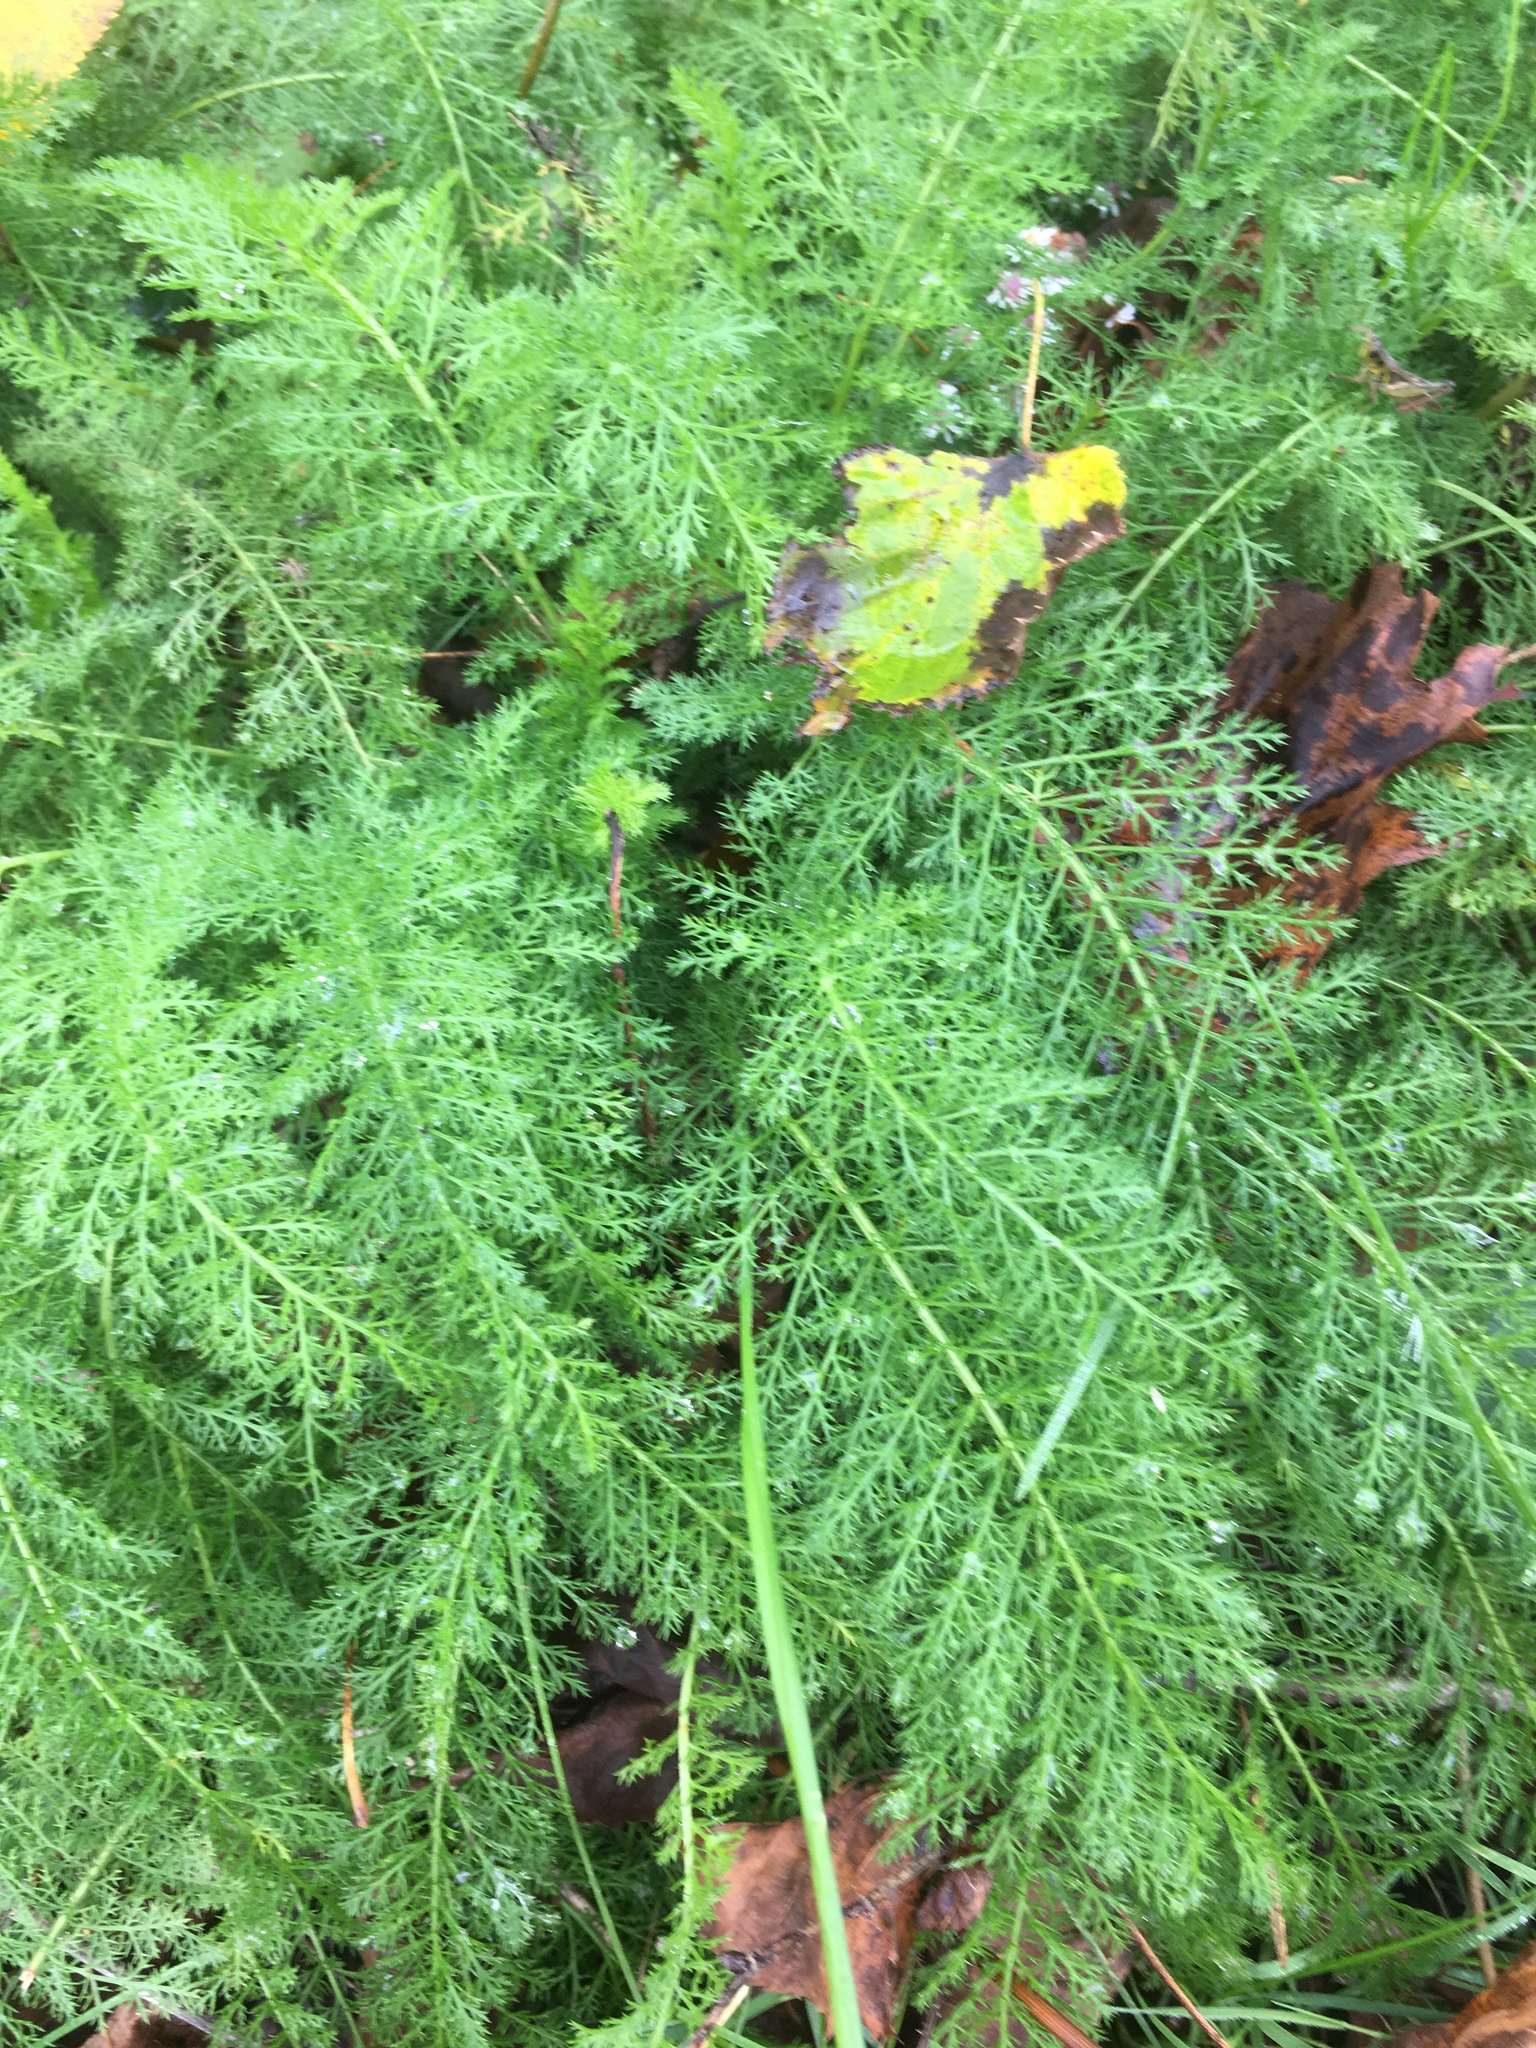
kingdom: Plantae
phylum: Tracheophyta
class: Magnoliopsida
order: Asterales
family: Asteraceae
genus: Achillea
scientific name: Achillea millefolium
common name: Yarrow
